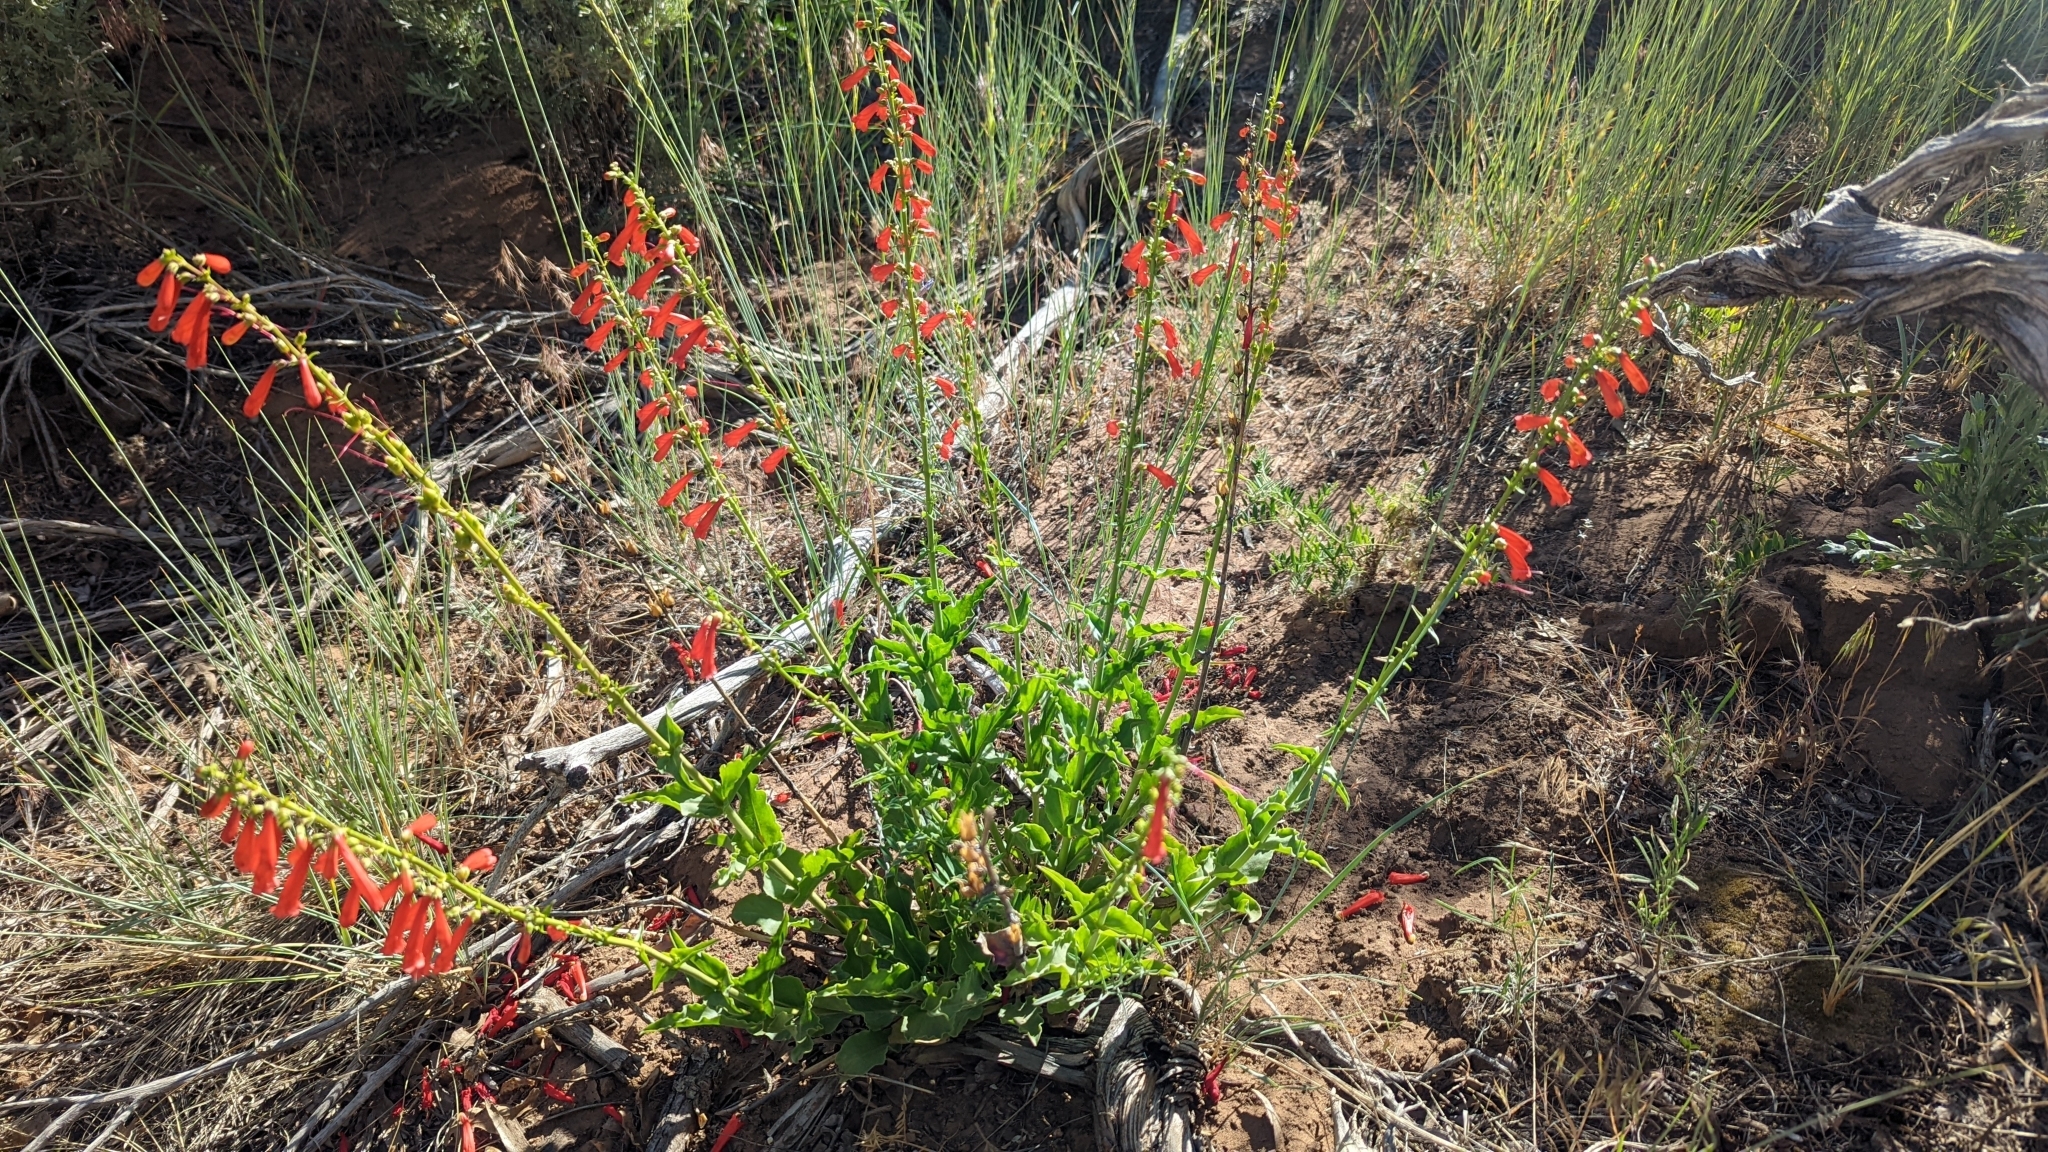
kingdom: Plantae
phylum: Tracheophyta
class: Magnoliopsida
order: Lamiales
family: Plantaginaceae
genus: Penstemon
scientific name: Penstemon eatonii
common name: Eaton's penstemon
